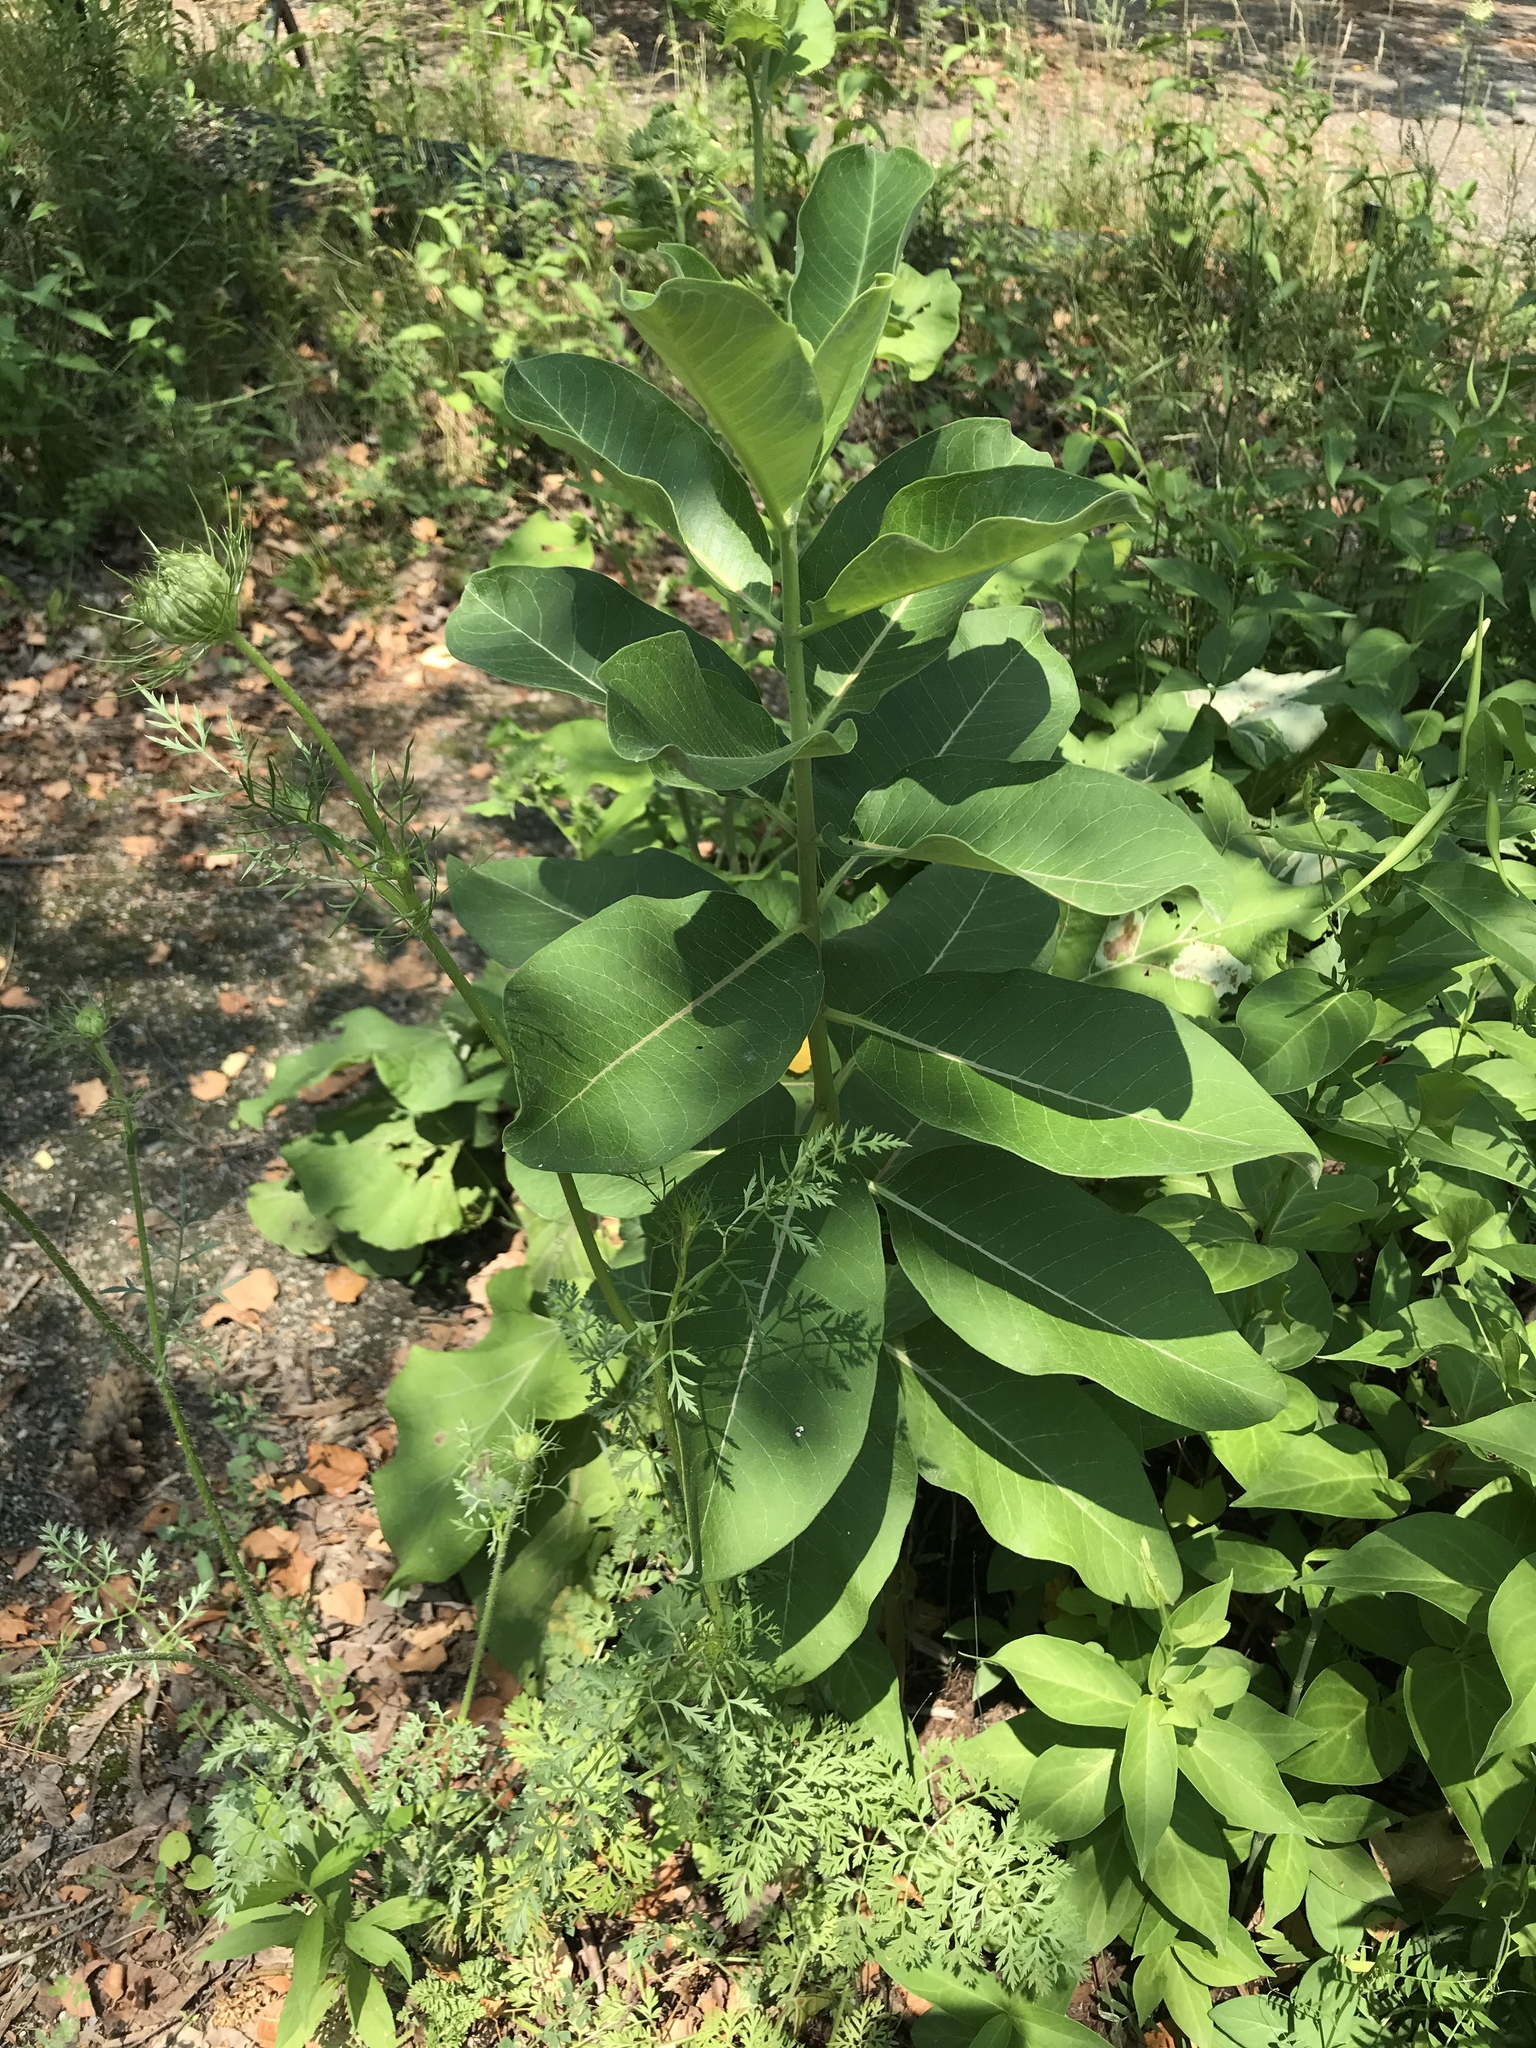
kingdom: Plantae
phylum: Tracheophyta
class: Magnoliopsida
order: Gentianales
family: Apocynaceae
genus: Asclepias
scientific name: Asclepias syriaca
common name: Common milkweed
